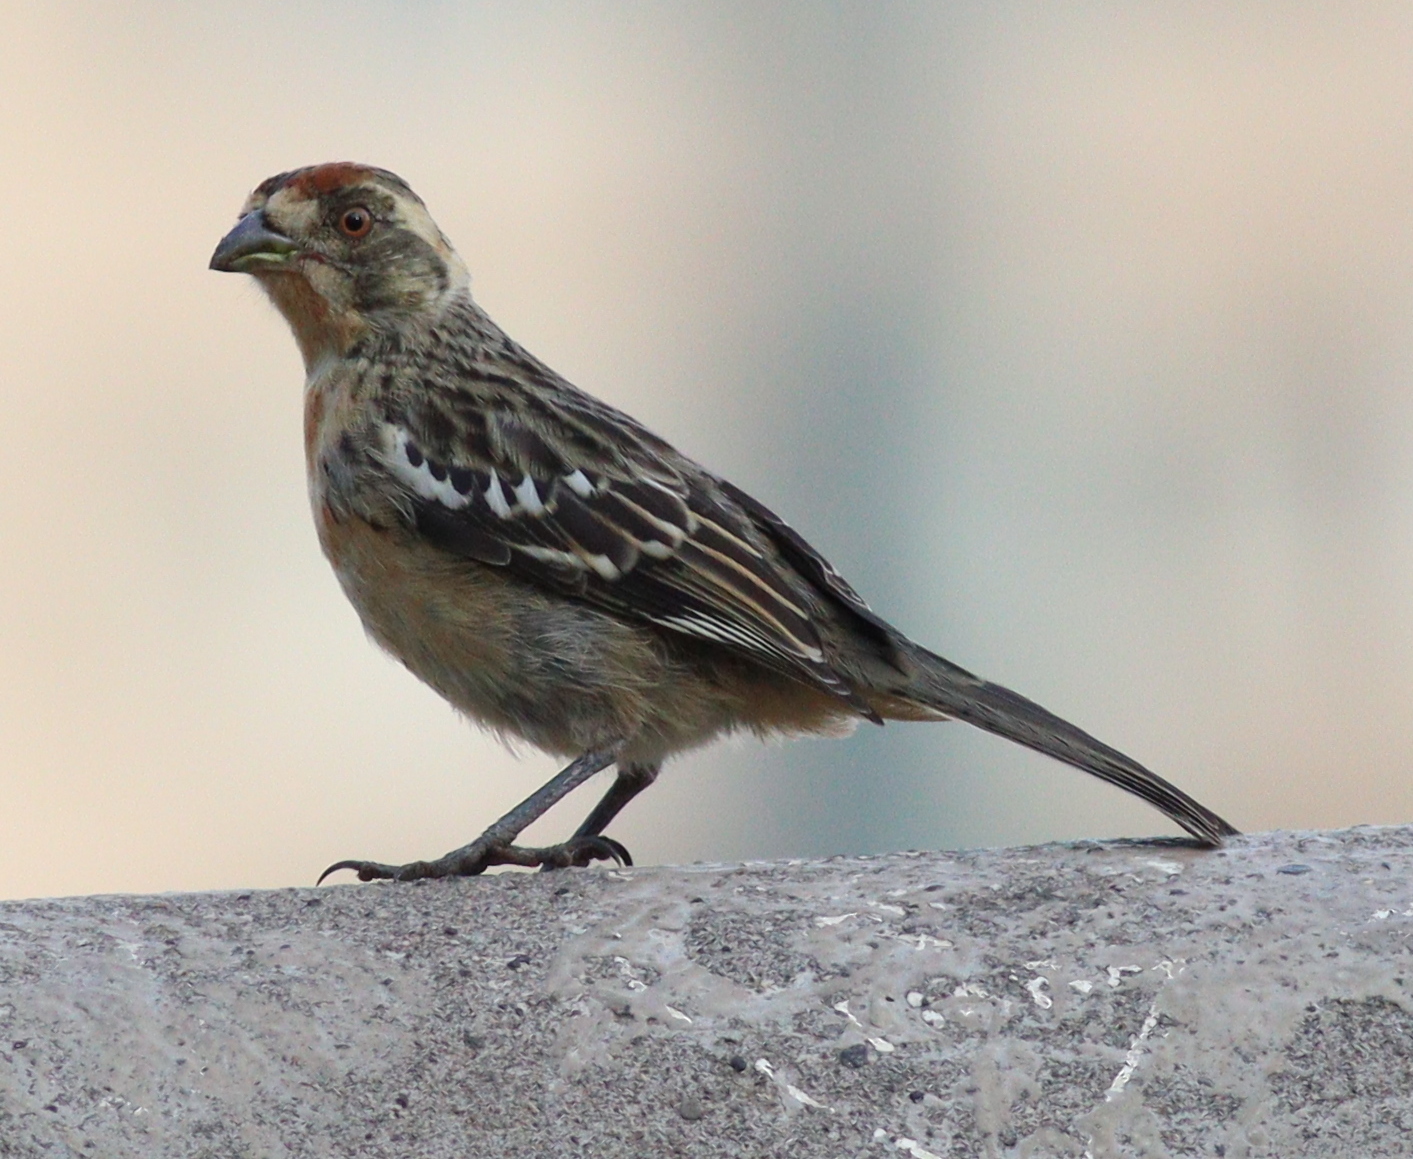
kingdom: Animalia
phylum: Chordata
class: Aves
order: Passeriformes
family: Cotingidae
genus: Phytotoma
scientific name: Phytotoma rara
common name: Rufous-tailed plantcutter
